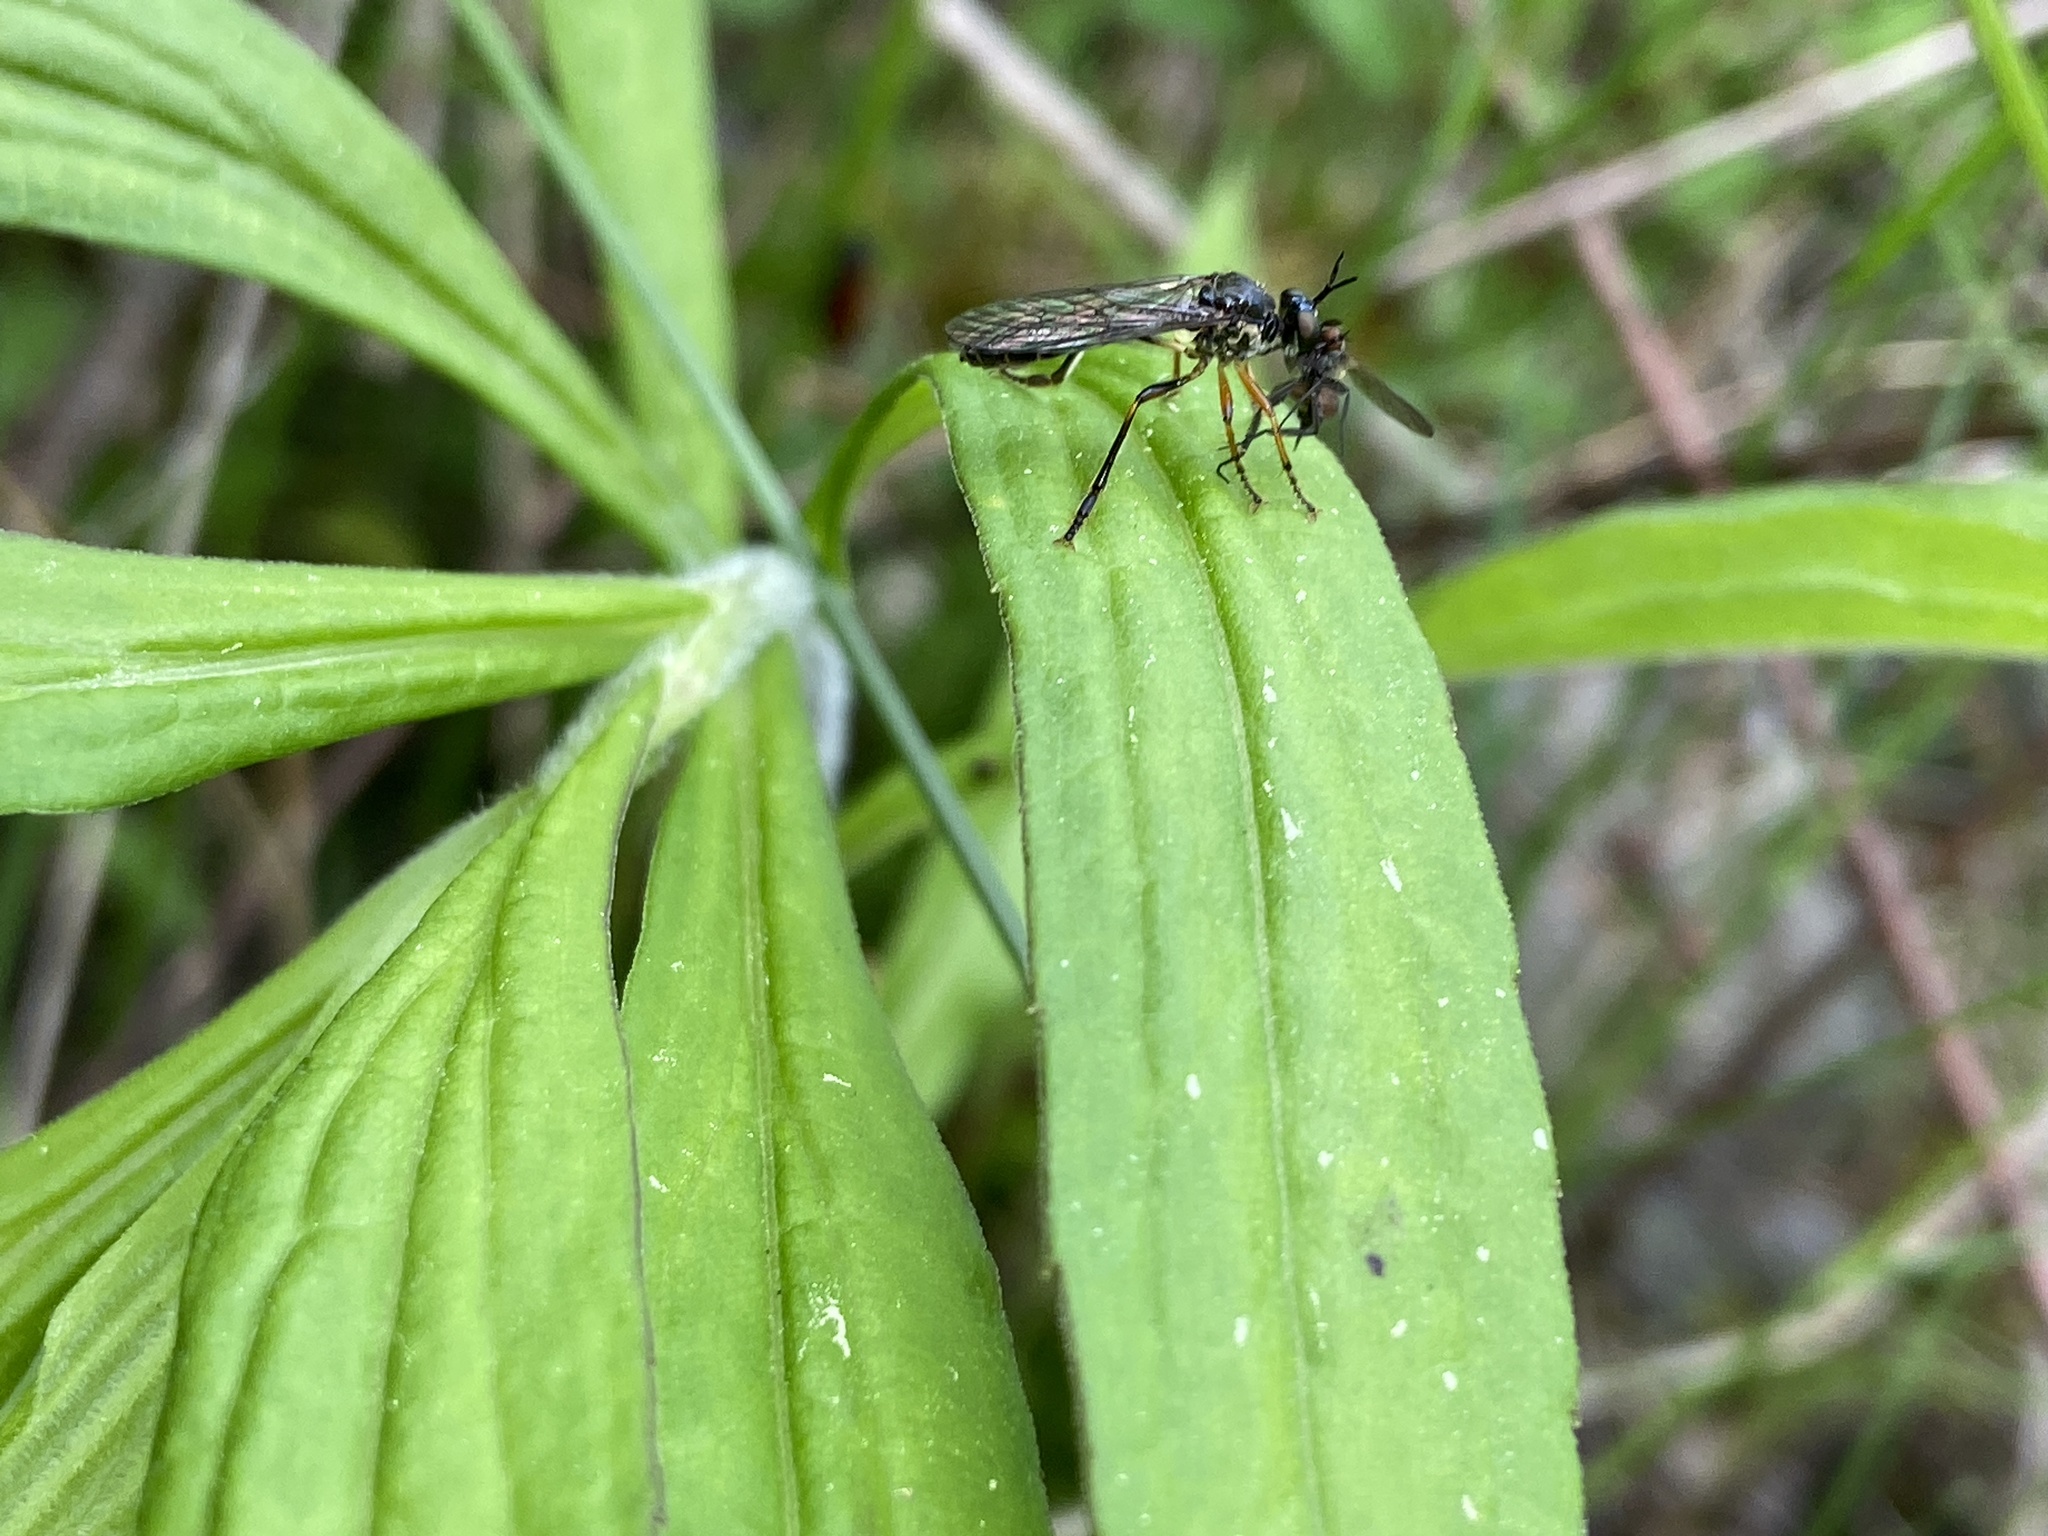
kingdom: Animalia
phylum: Arthropoda
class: Insecta
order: Diptera
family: Asilidae
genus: Dioctria
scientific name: Dioctria hyalipennis
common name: Stripe-legged robberfly
